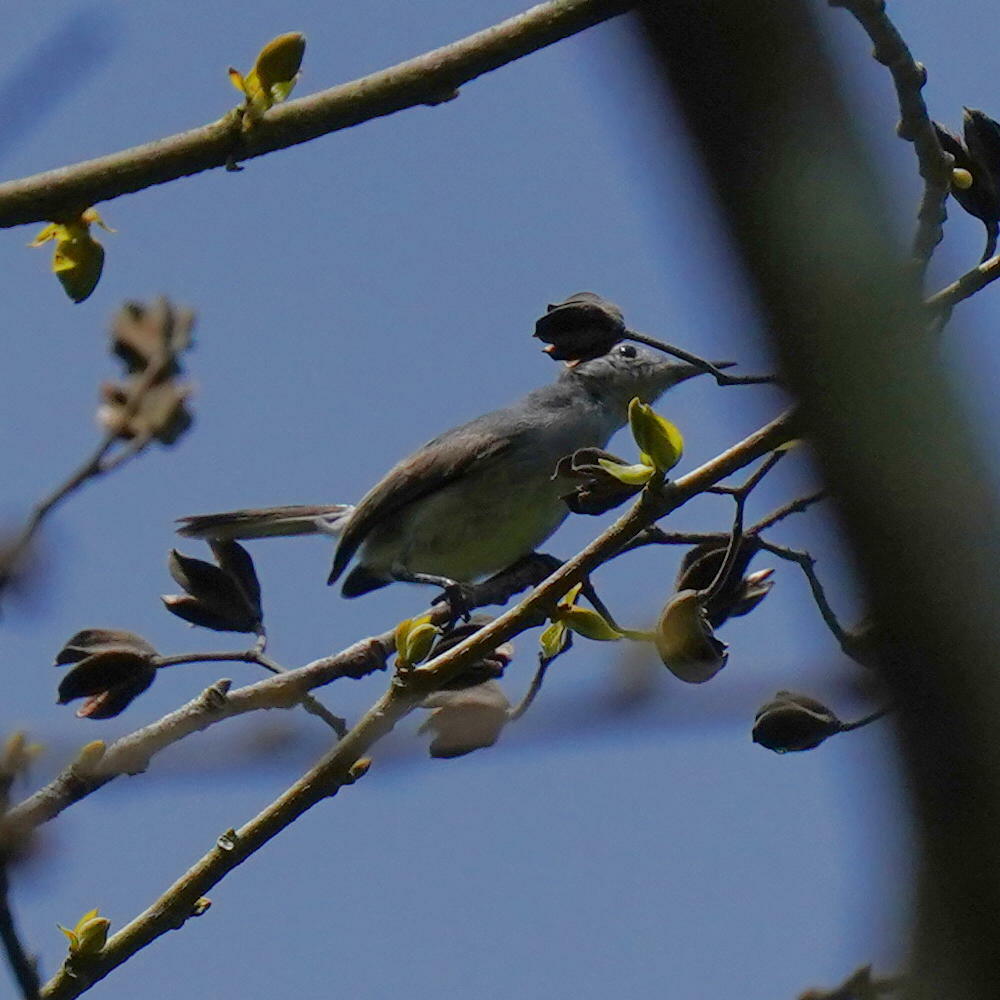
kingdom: Animalia
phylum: Chordata
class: Aves
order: Passeriformes
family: Polioptilidae
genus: Polioptila
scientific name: Polioptila plumbea
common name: Tropical gnatcatcher
